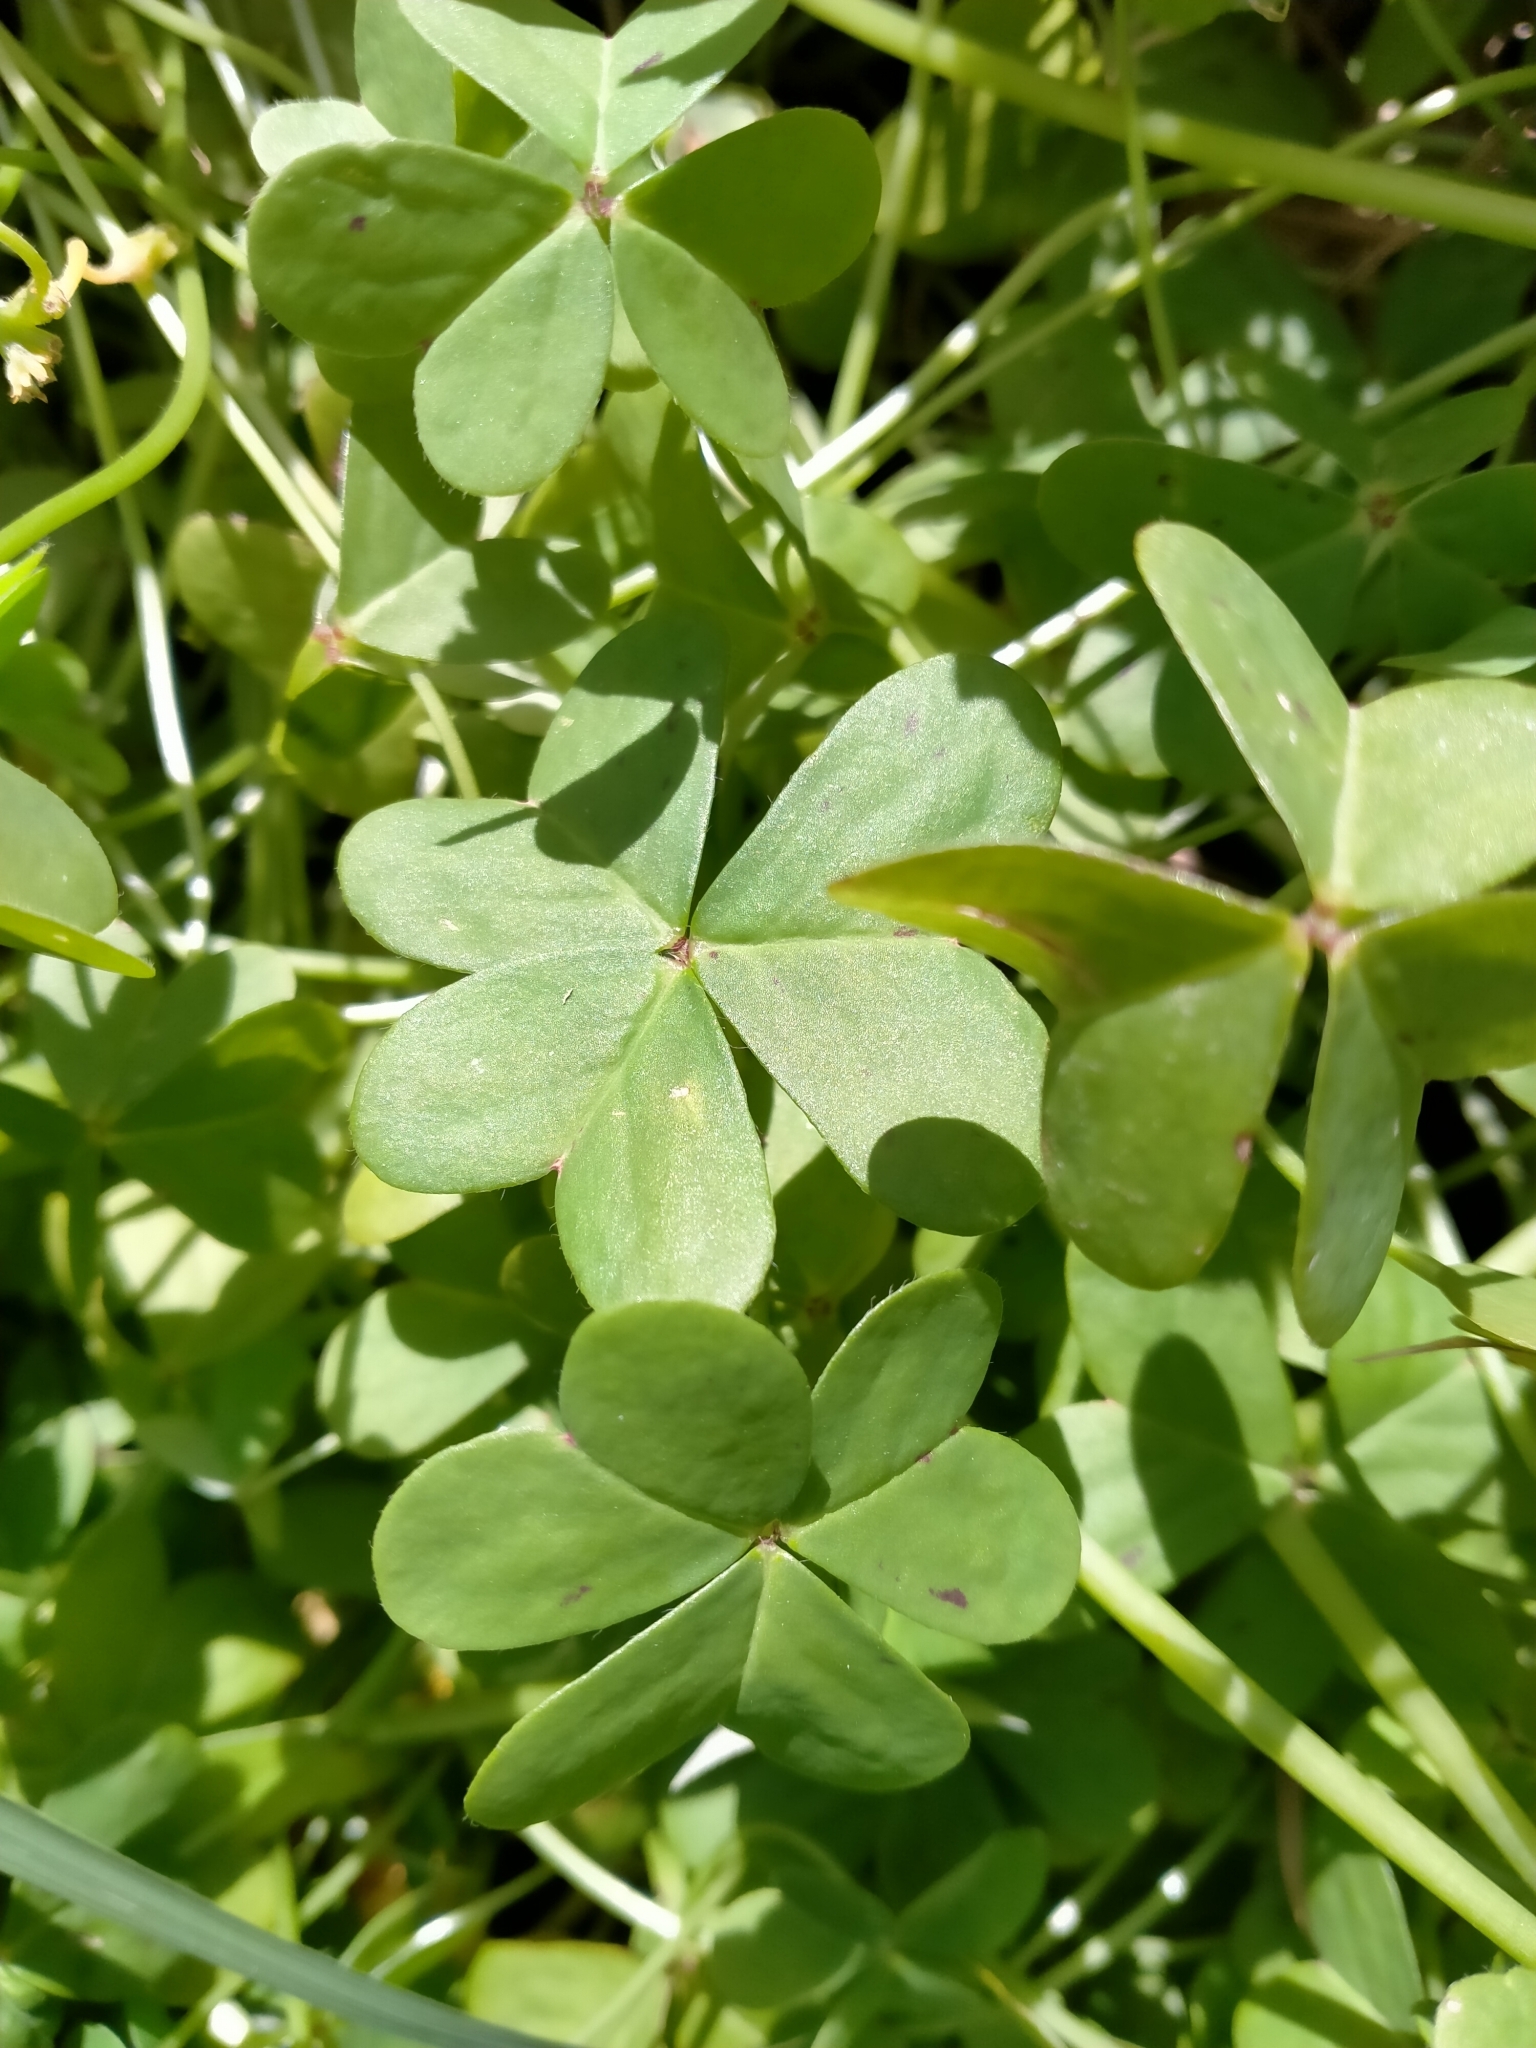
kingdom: Plantae
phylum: Tracheophyta
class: Magnoliopsida
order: Oxalidales
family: Oxalidaceae
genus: Oxalis
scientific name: Oxalis pes-caprae
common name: Bermuda-buttercup
